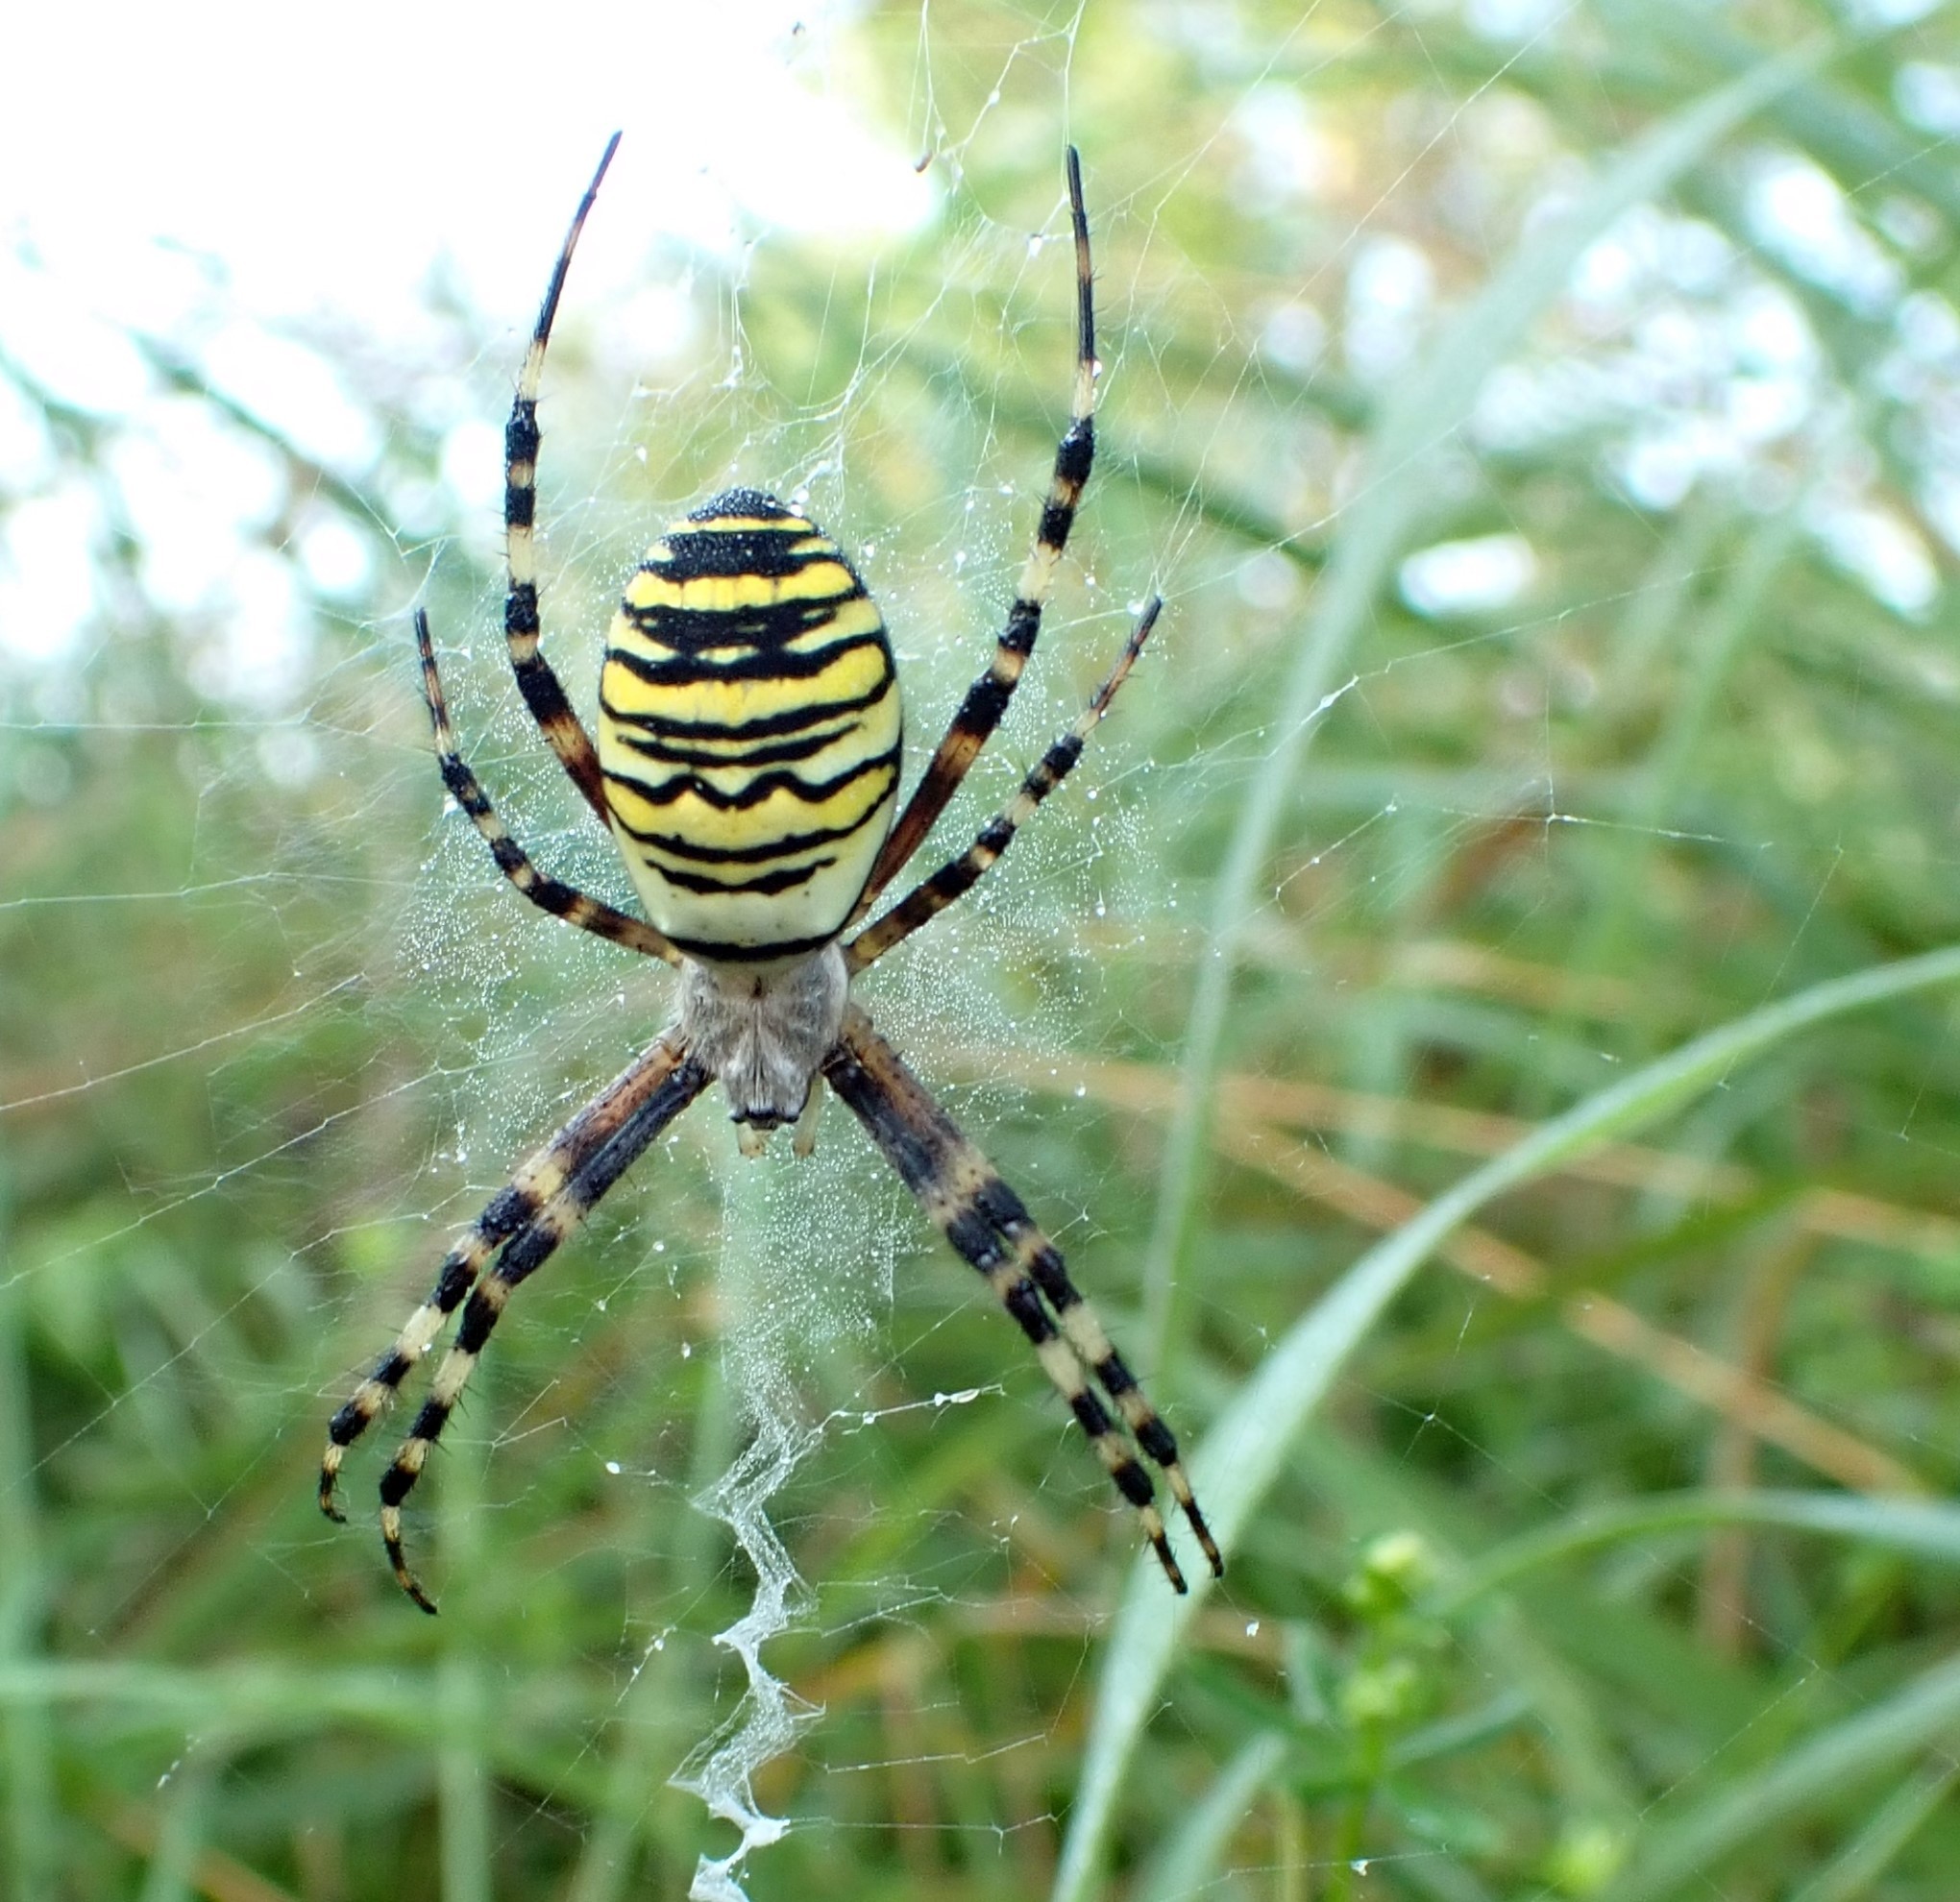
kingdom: Animalia
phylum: Arthropoda
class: Arachnida
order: Araneae
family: Araneidae
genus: Argiope
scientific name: Argiope bruennichi
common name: Wasp spider
